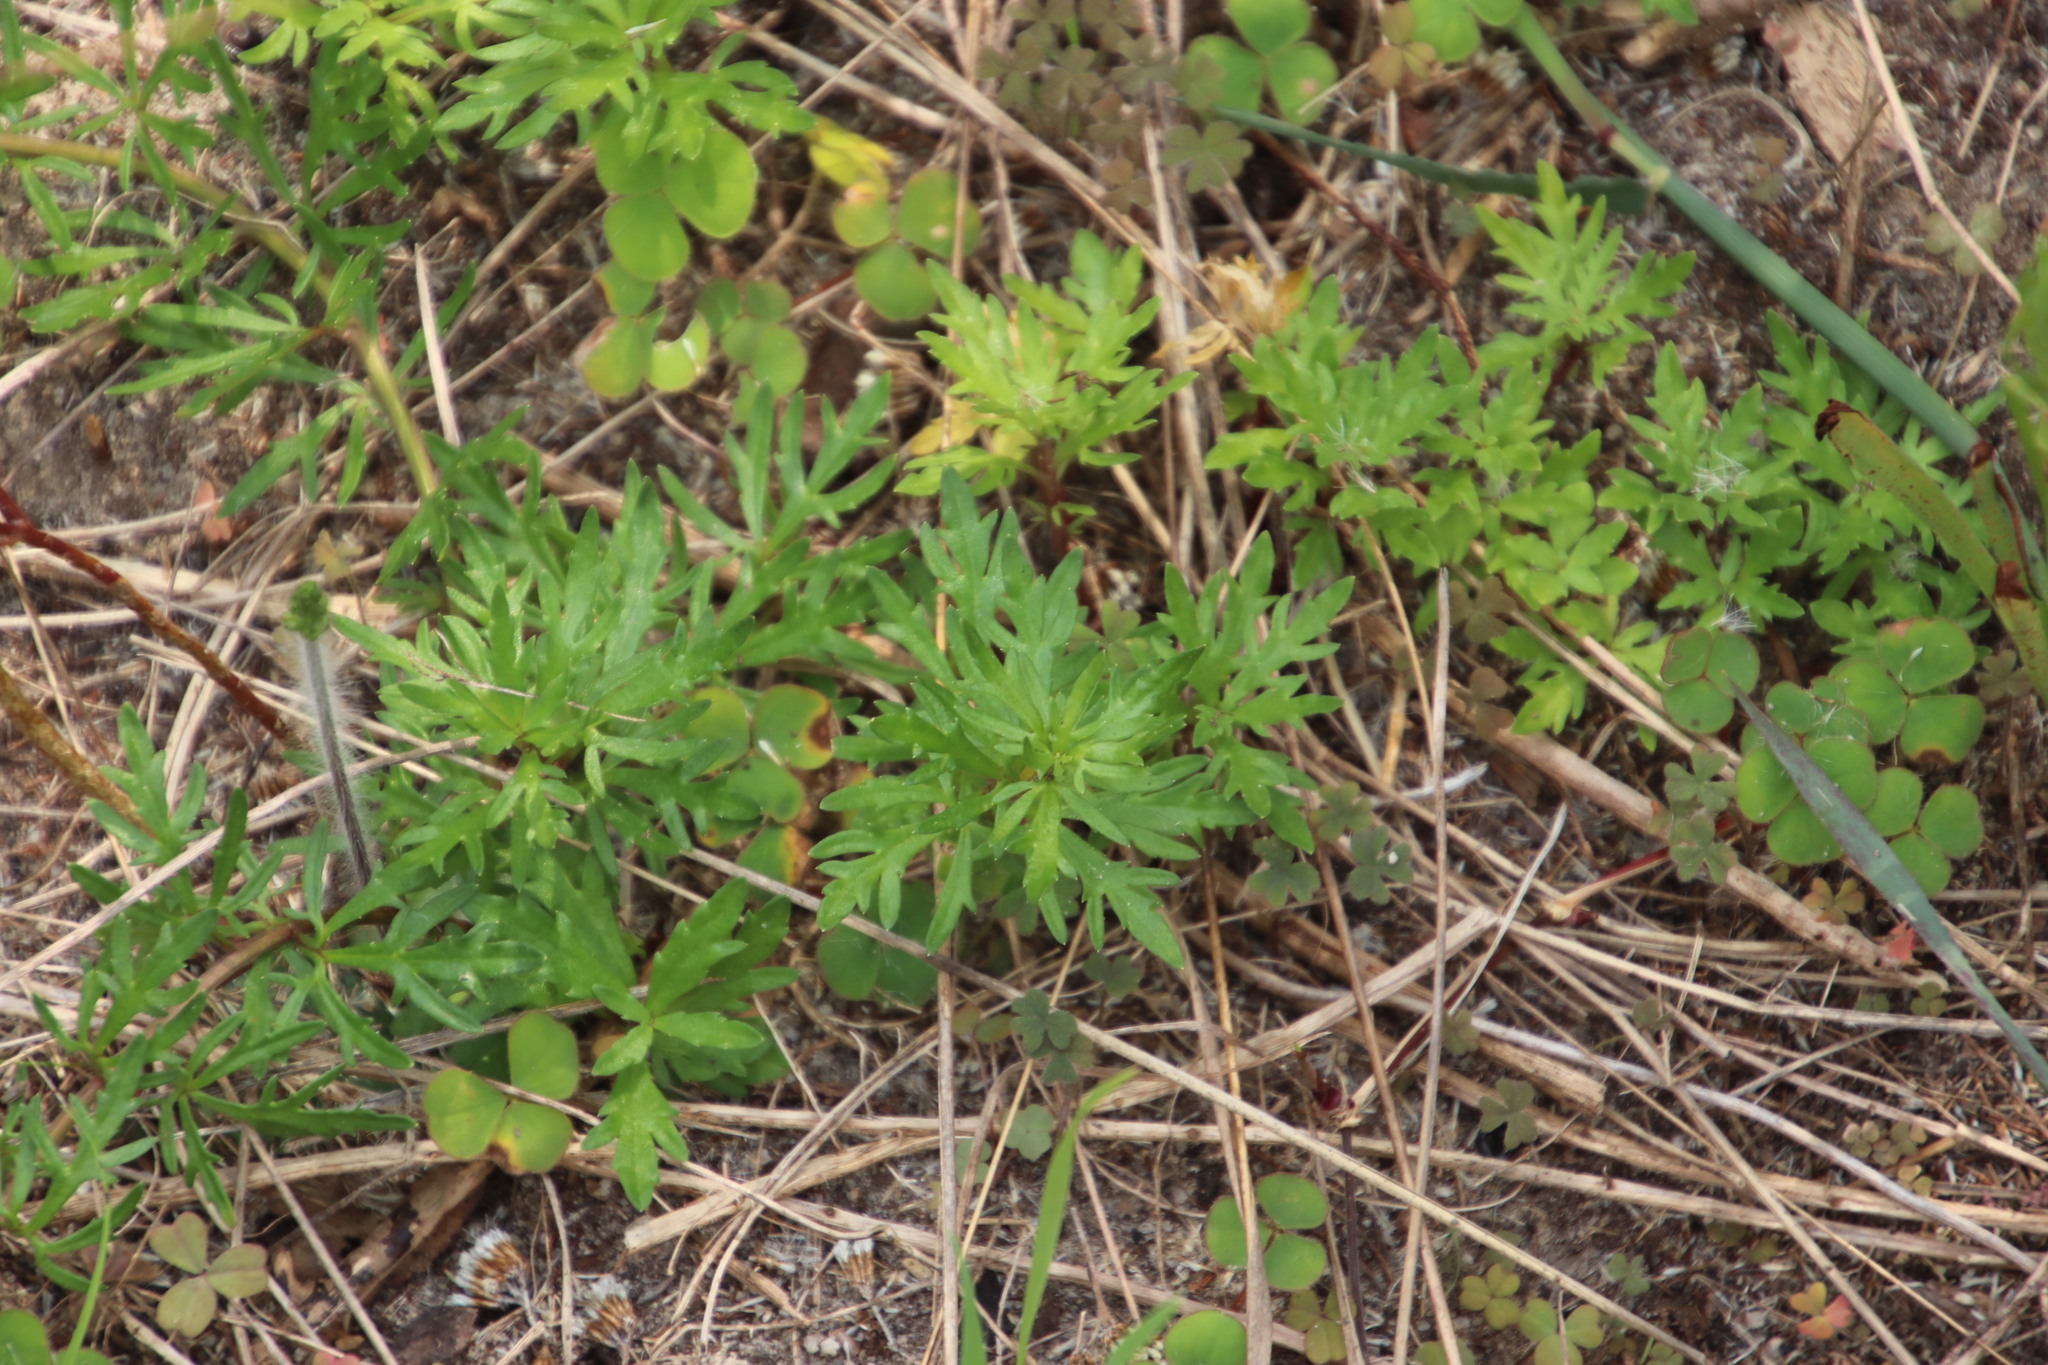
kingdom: Plantae
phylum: Tracheophyta
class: Magnoliopsida
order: Asterales
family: Campanulaceae
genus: Cyphia
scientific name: Cyphia bulbosa
